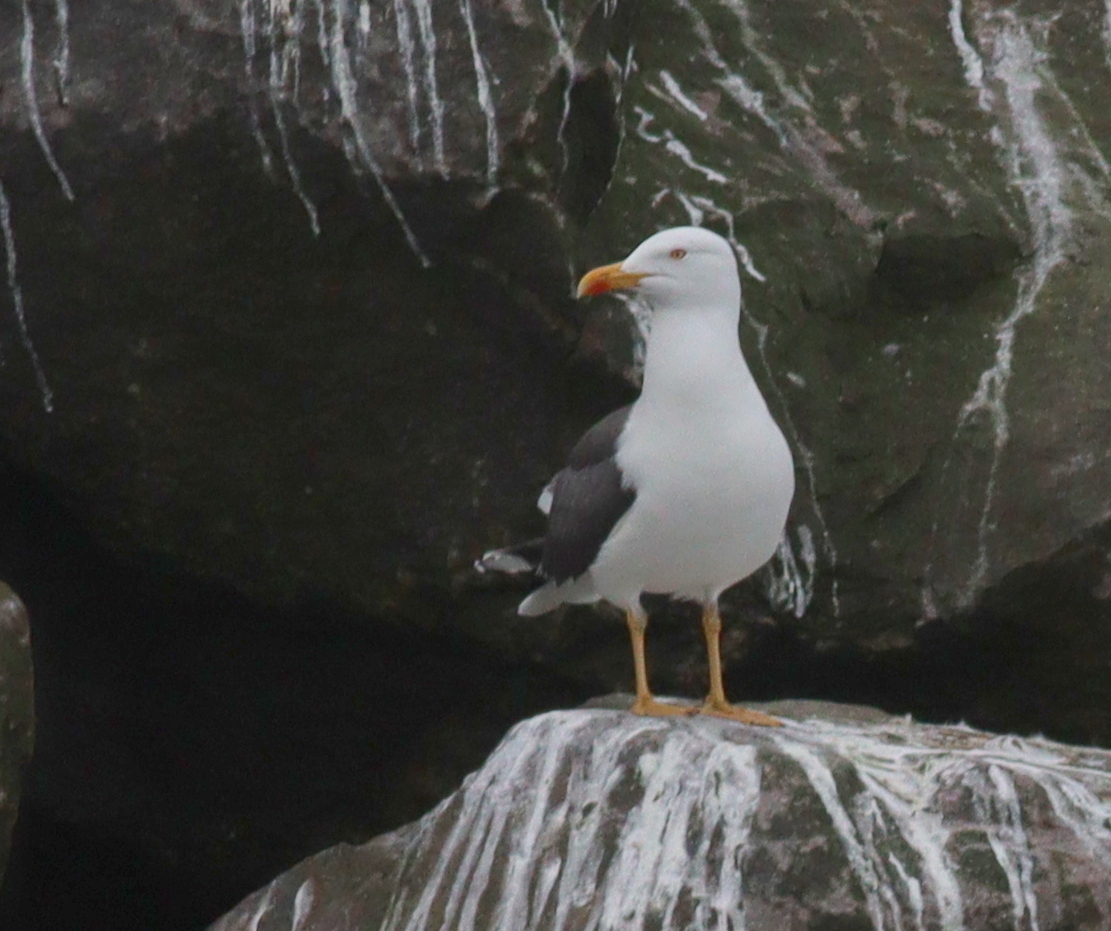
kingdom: Animalia
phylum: Chordata
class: Aves
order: Charadriiformes
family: Laridae
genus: Larus
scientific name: Larus fuscus
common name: Lesser black-backed gull
